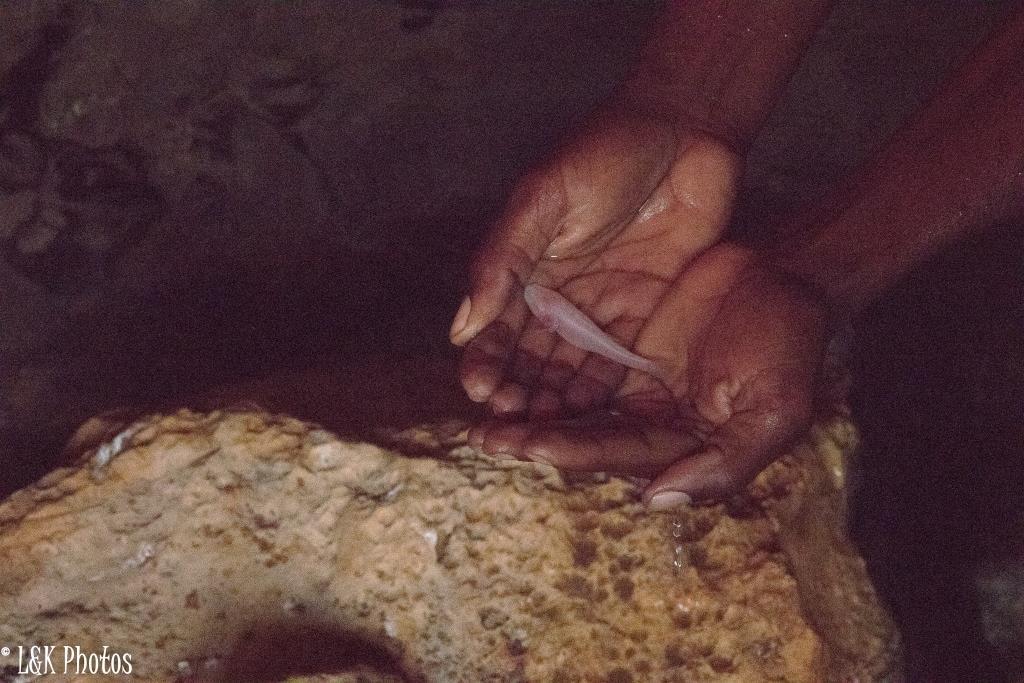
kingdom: Animalia
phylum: Chordata
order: Perciformes
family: Eleotridae
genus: Typhleotris
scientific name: Typhleotris madagascariensis
